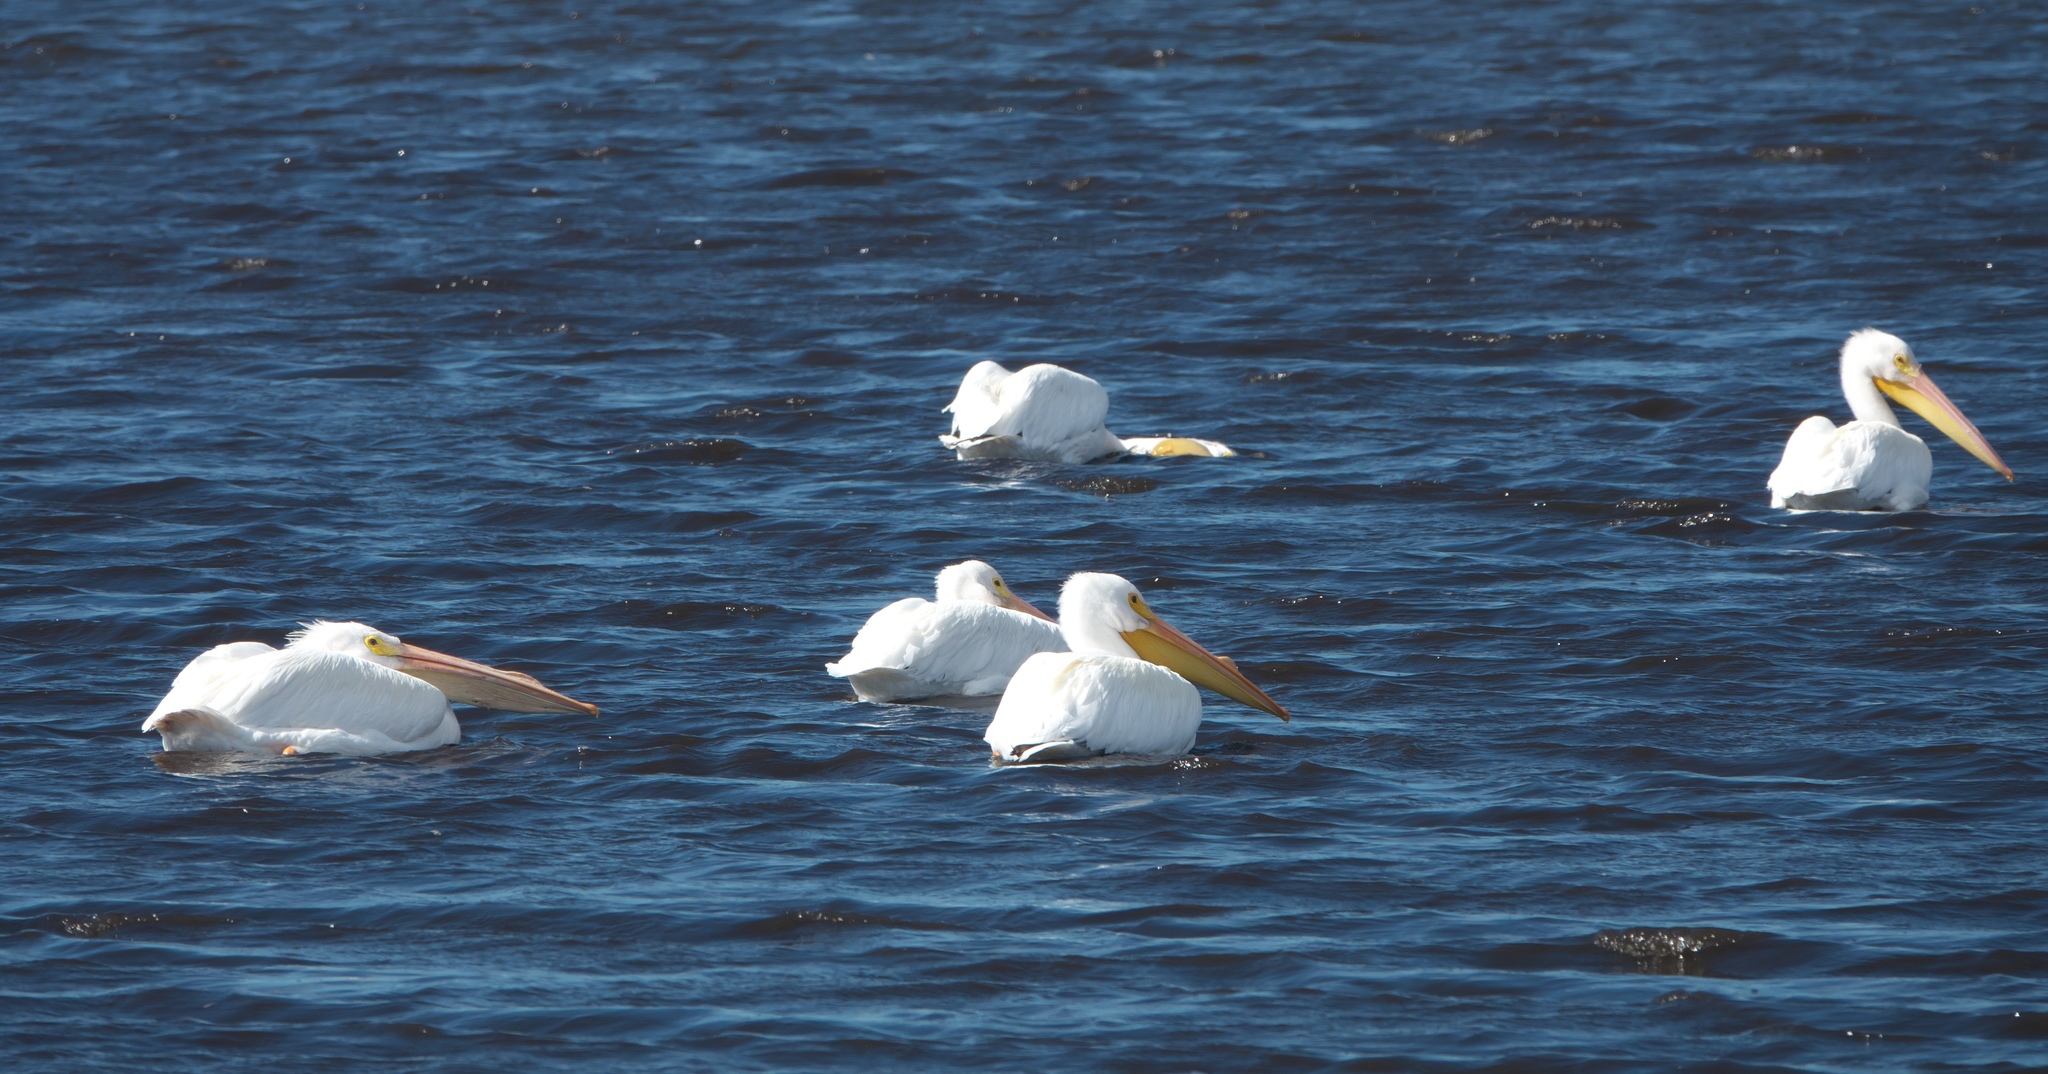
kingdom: Animalia
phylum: Chordata
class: Aves
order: Pelecaniformes
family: Pelecanidae
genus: Pelecanus
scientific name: Pelecanus erythrorhynchos
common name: American white pelican
